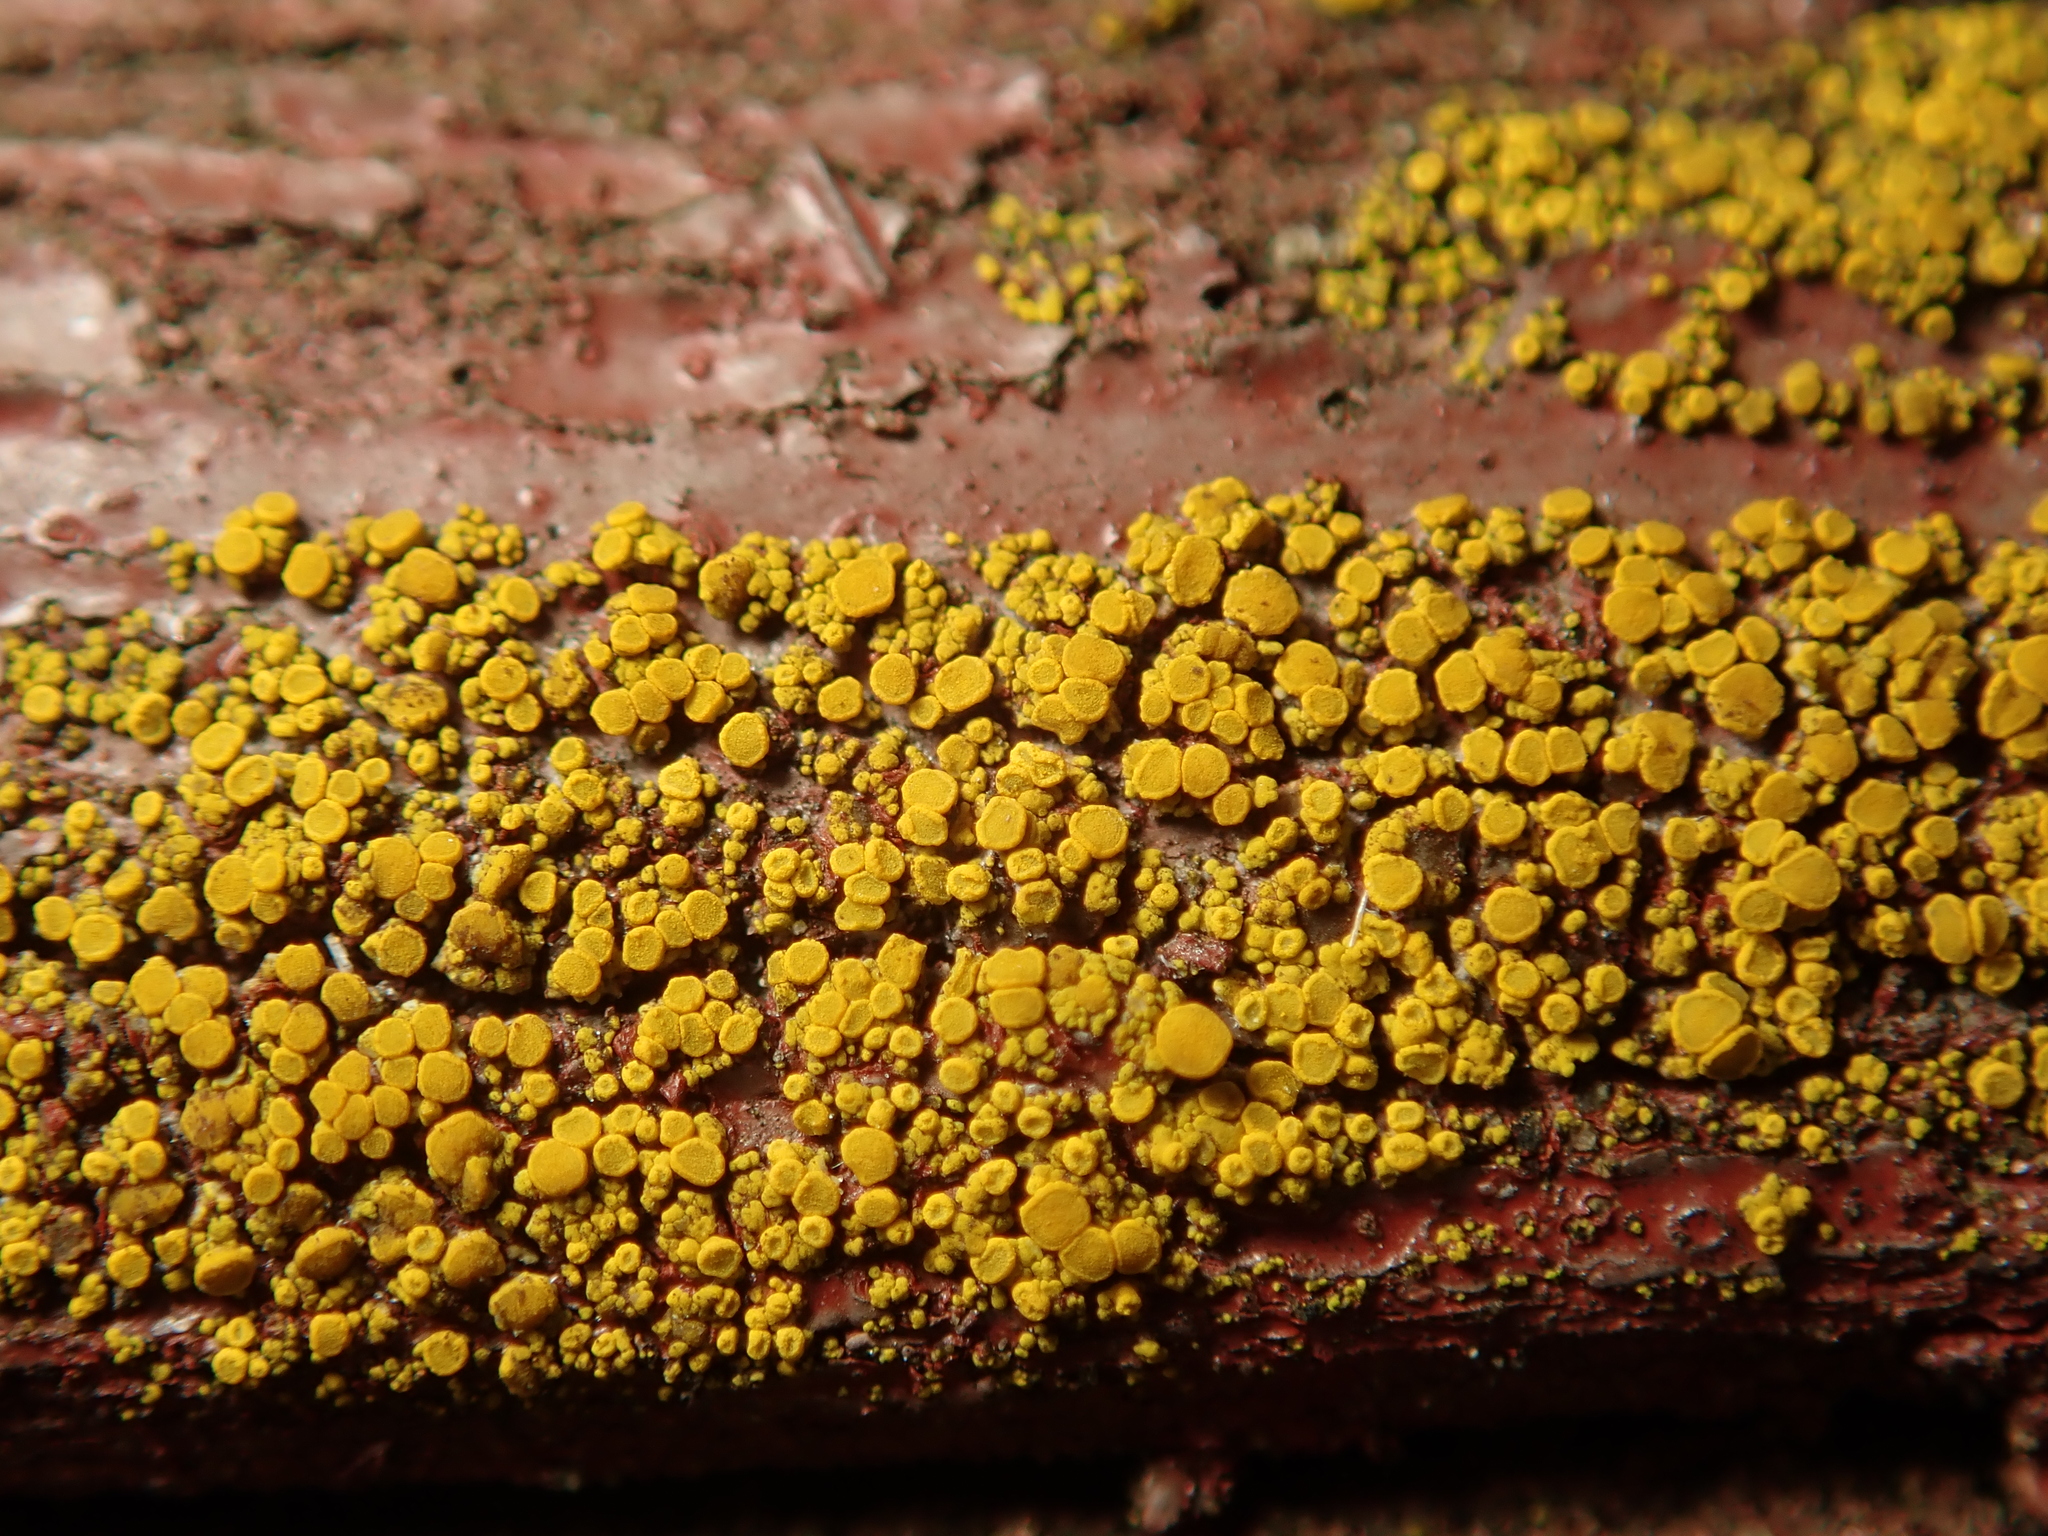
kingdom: Fungi
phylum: Ascomycota
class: Candelariomycetes
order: Candelariales
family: Candelariaceae
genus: Candelariella
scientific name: Candelariella vitellina
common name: Common goldspeck
